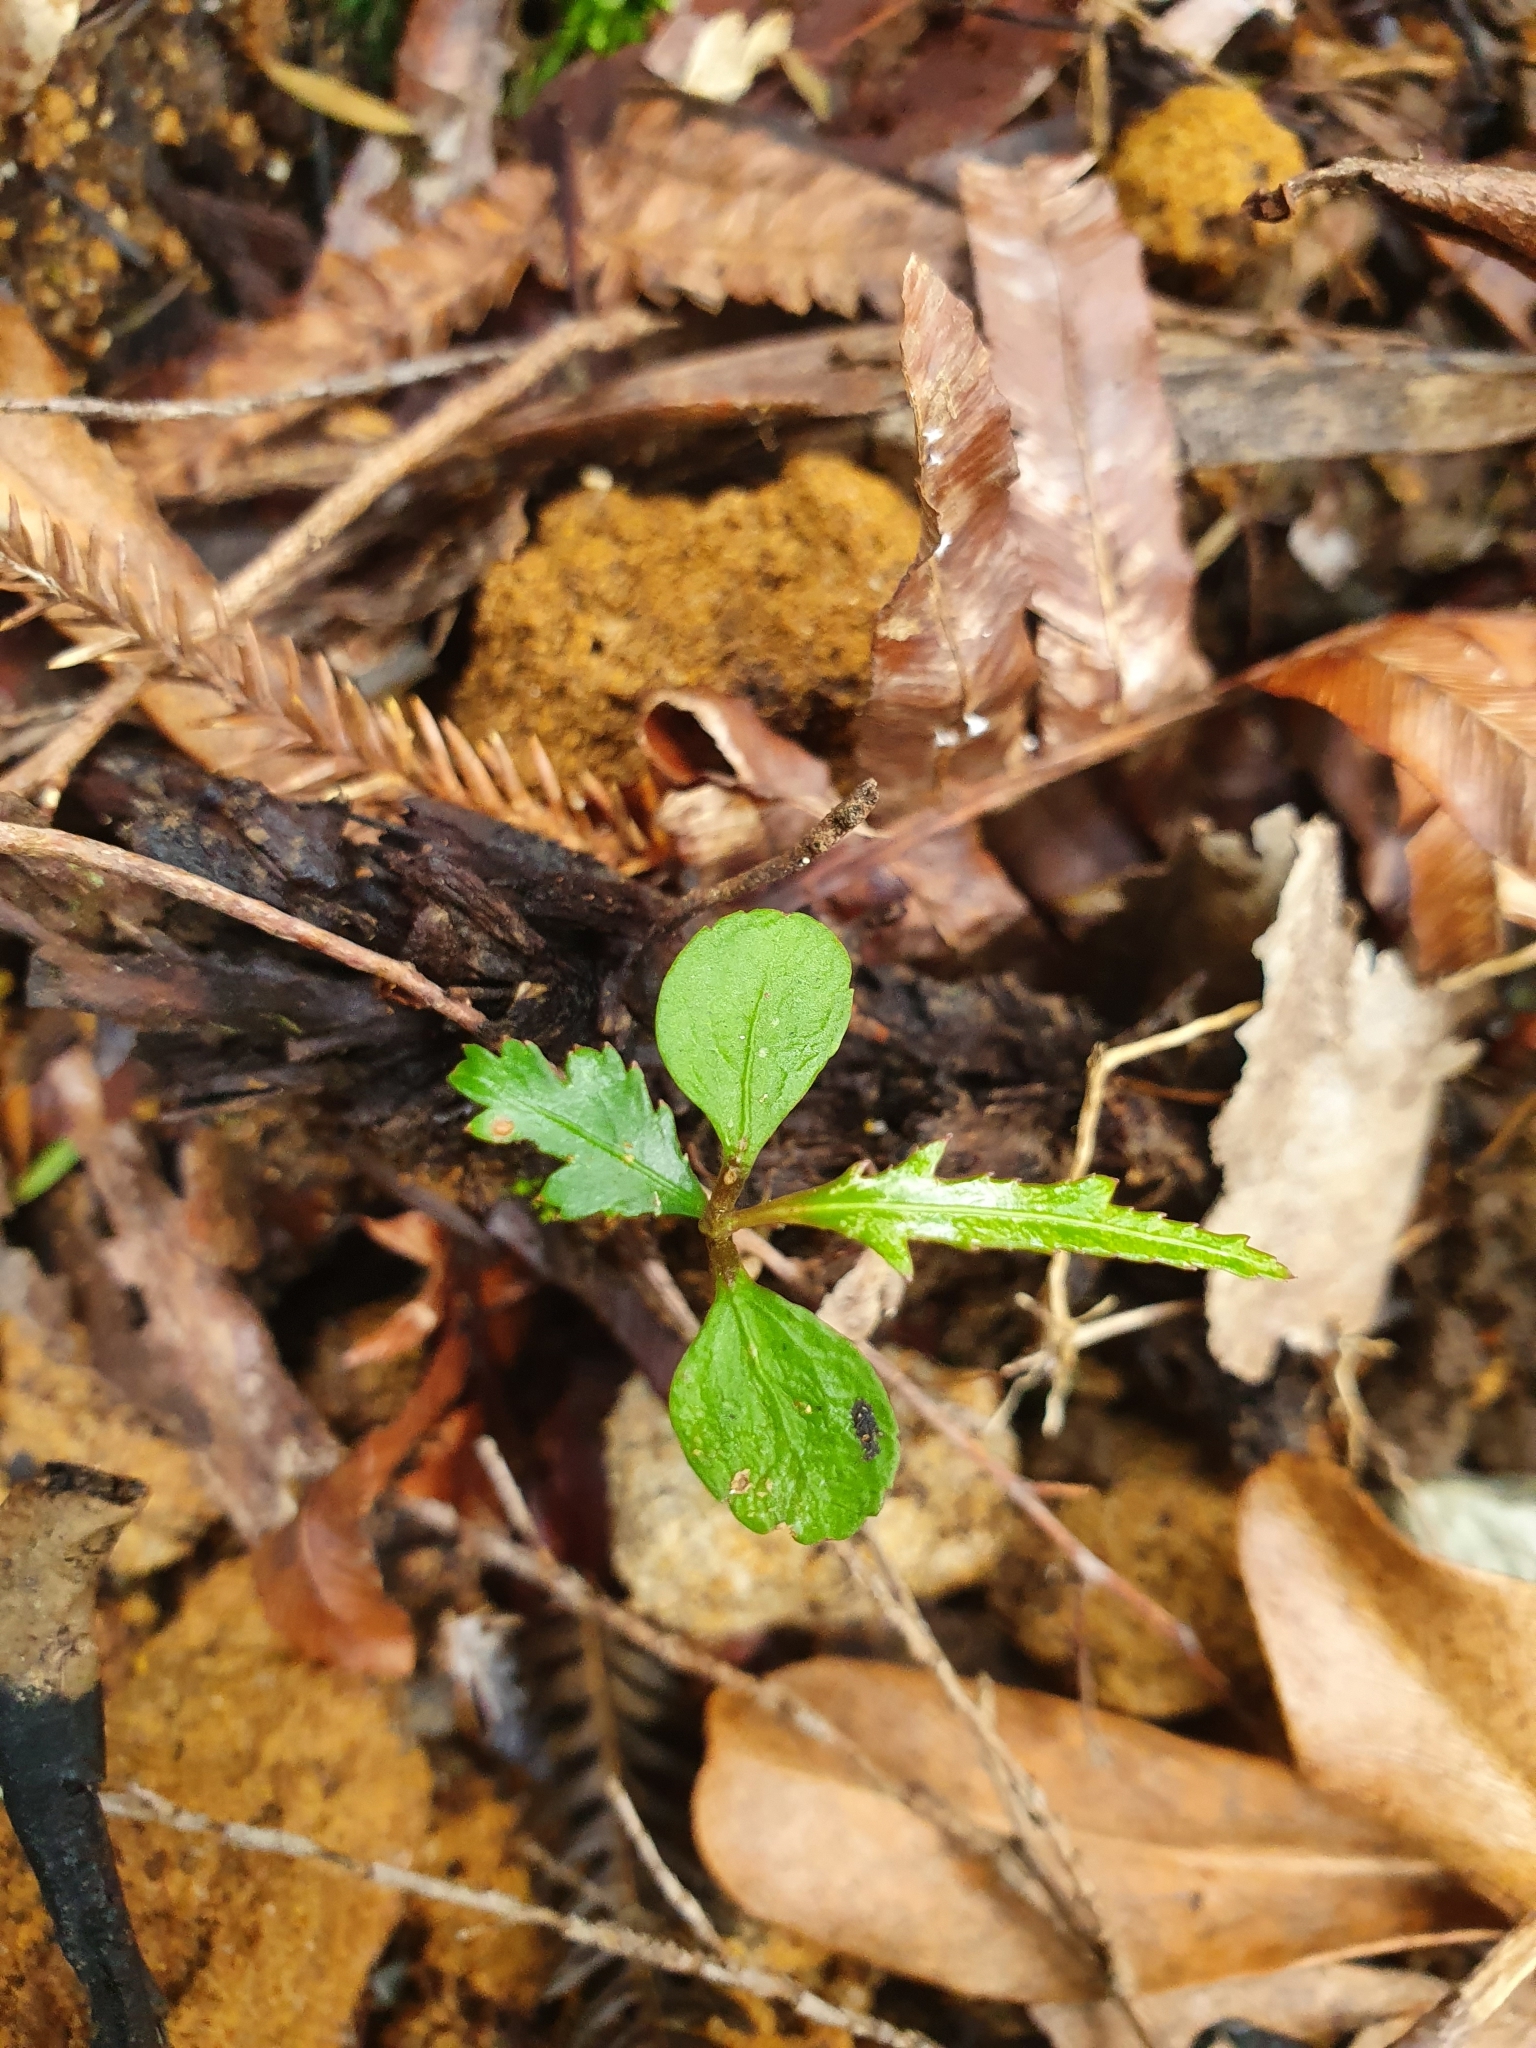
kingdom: Plantae
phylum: Tracheophyta
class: Magnoliopsida
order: Apiales
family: Araliaceae
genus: Pseudopanax
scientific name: Pseudopanax crassifolius
